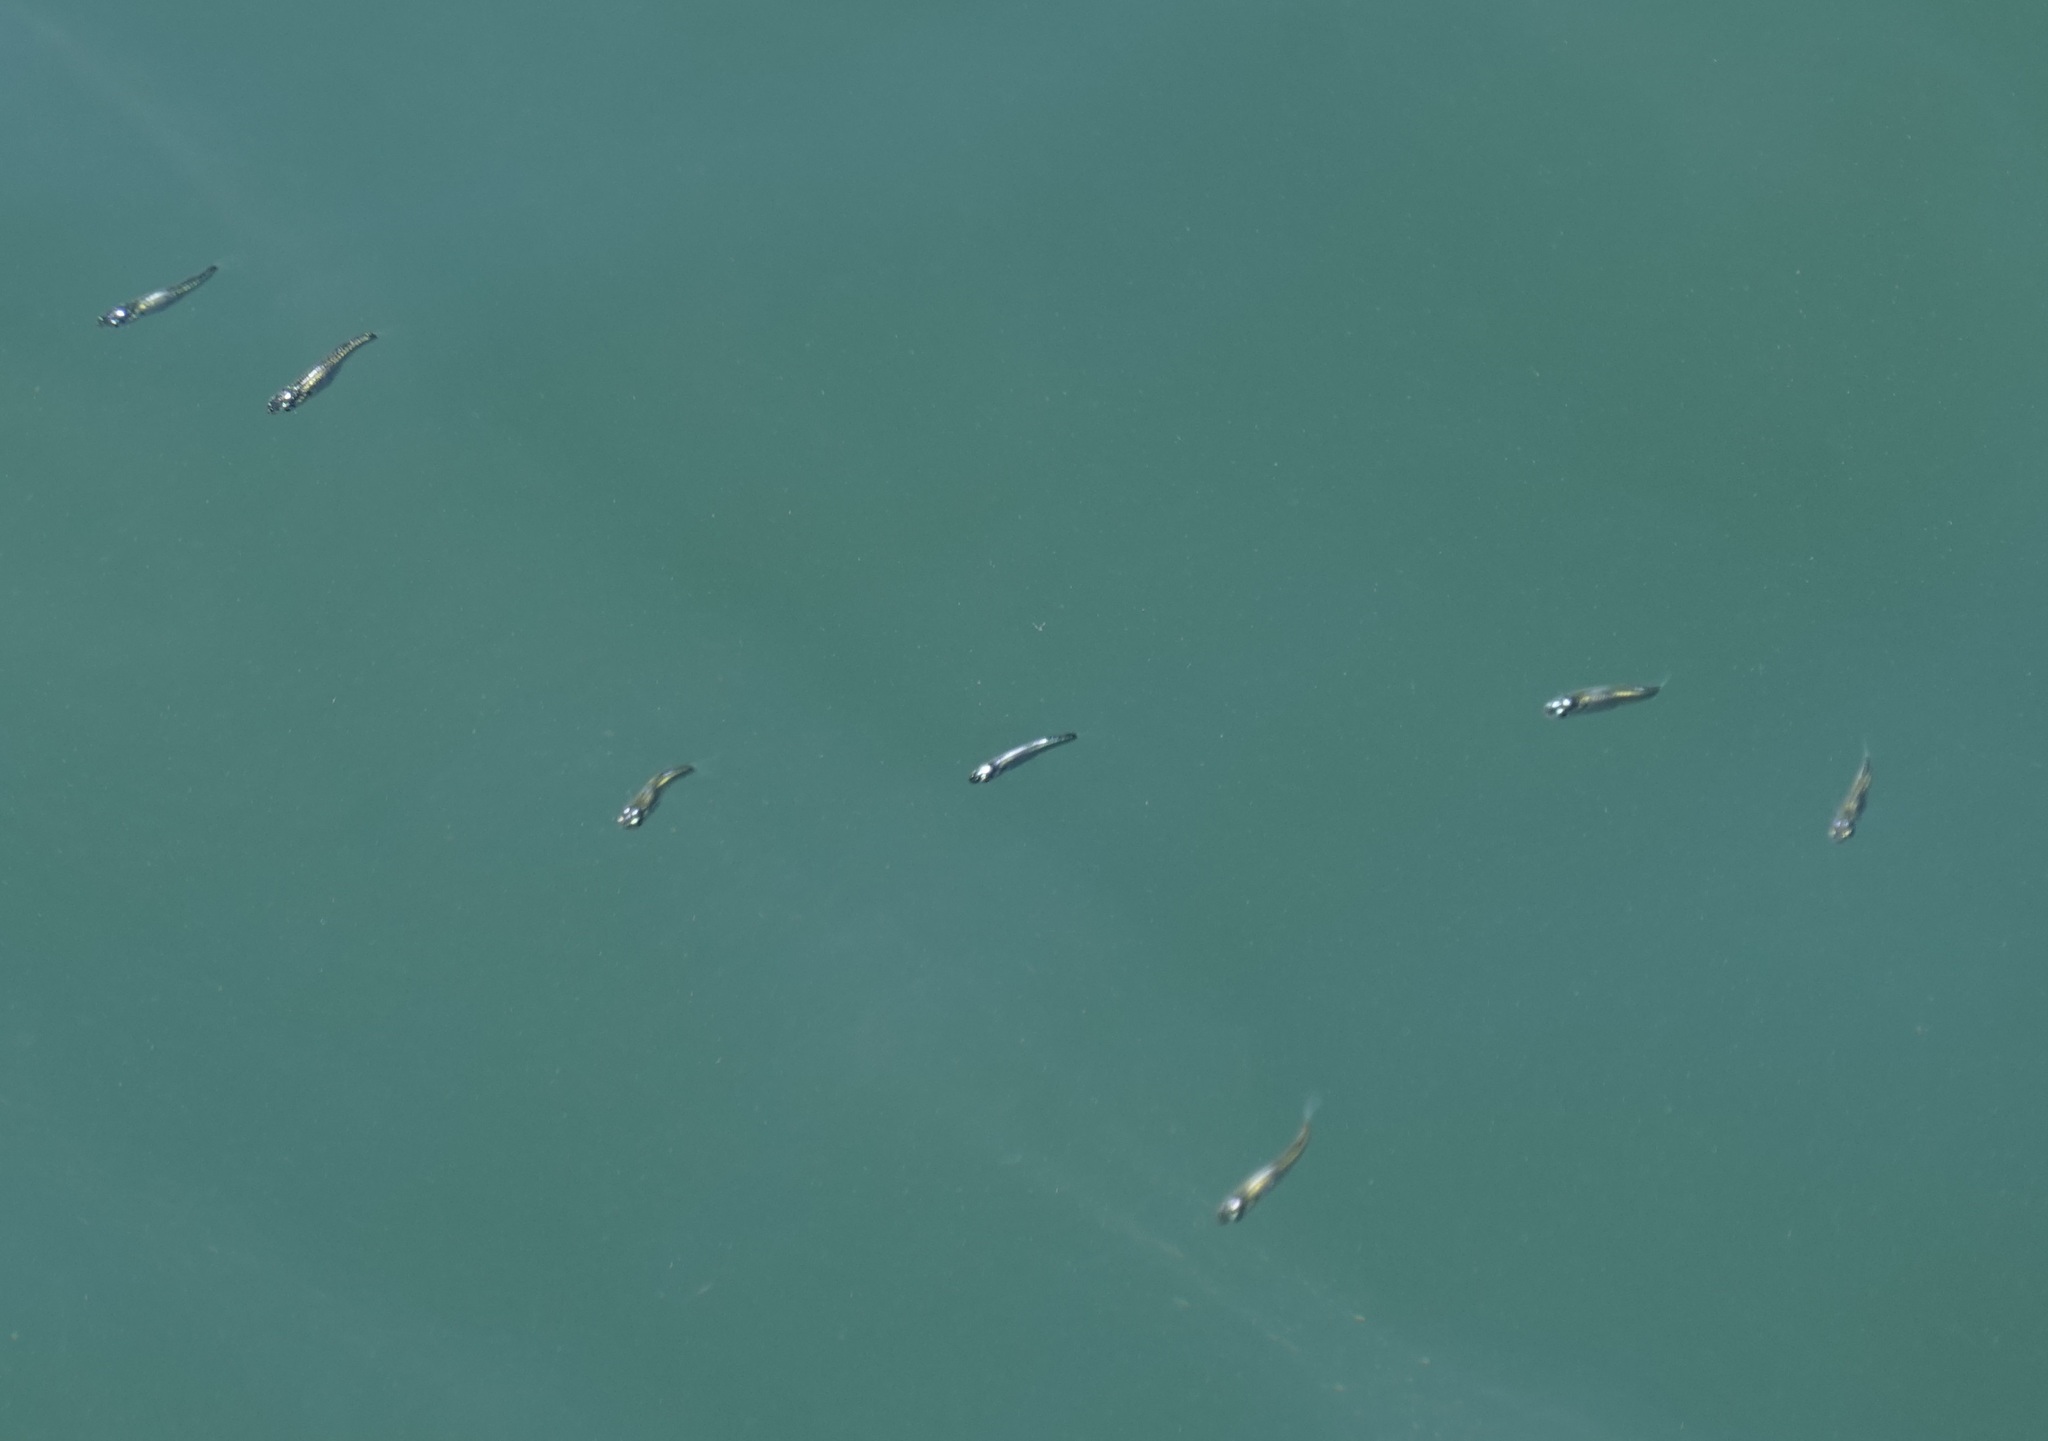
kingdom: Animalia
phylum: Chordata
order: Mugiliformes
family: Mugilidae
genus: Gracilimugil
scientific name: Gracilimugil argenteus
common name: Flat-tail mullet
